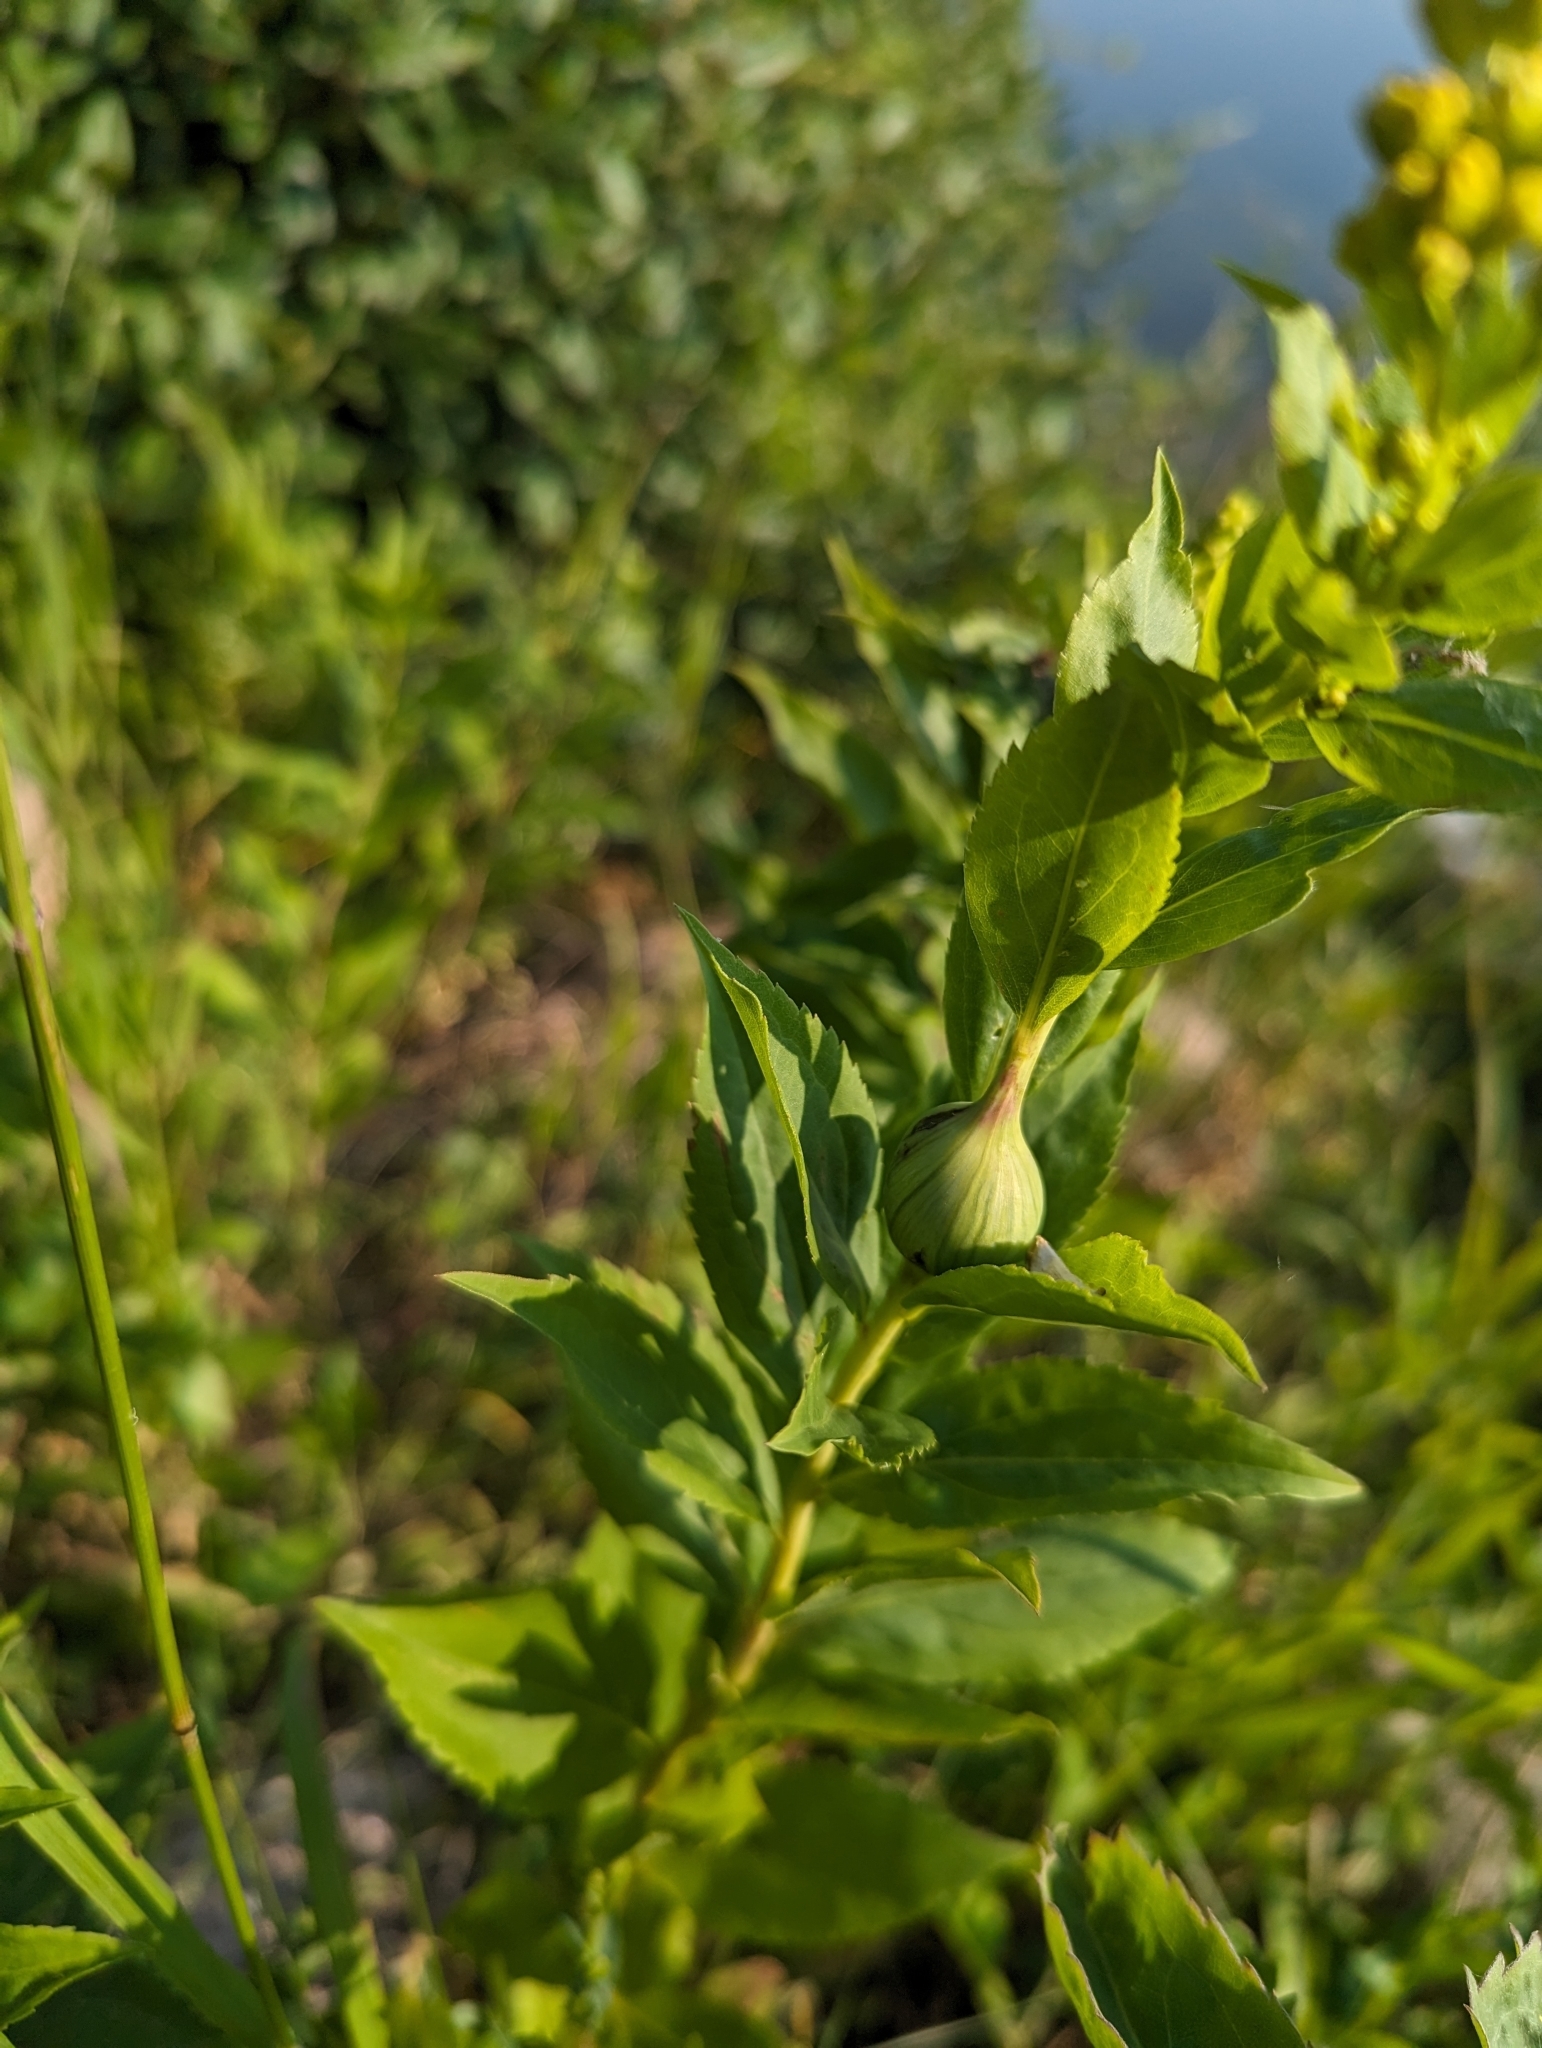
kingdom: Animalia
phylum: Arthropoda
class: Insecta
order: Diptera
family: Tephritidae
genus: Eurosta
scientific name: Eurosta solidaginis
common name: Goldenrod gall fly
